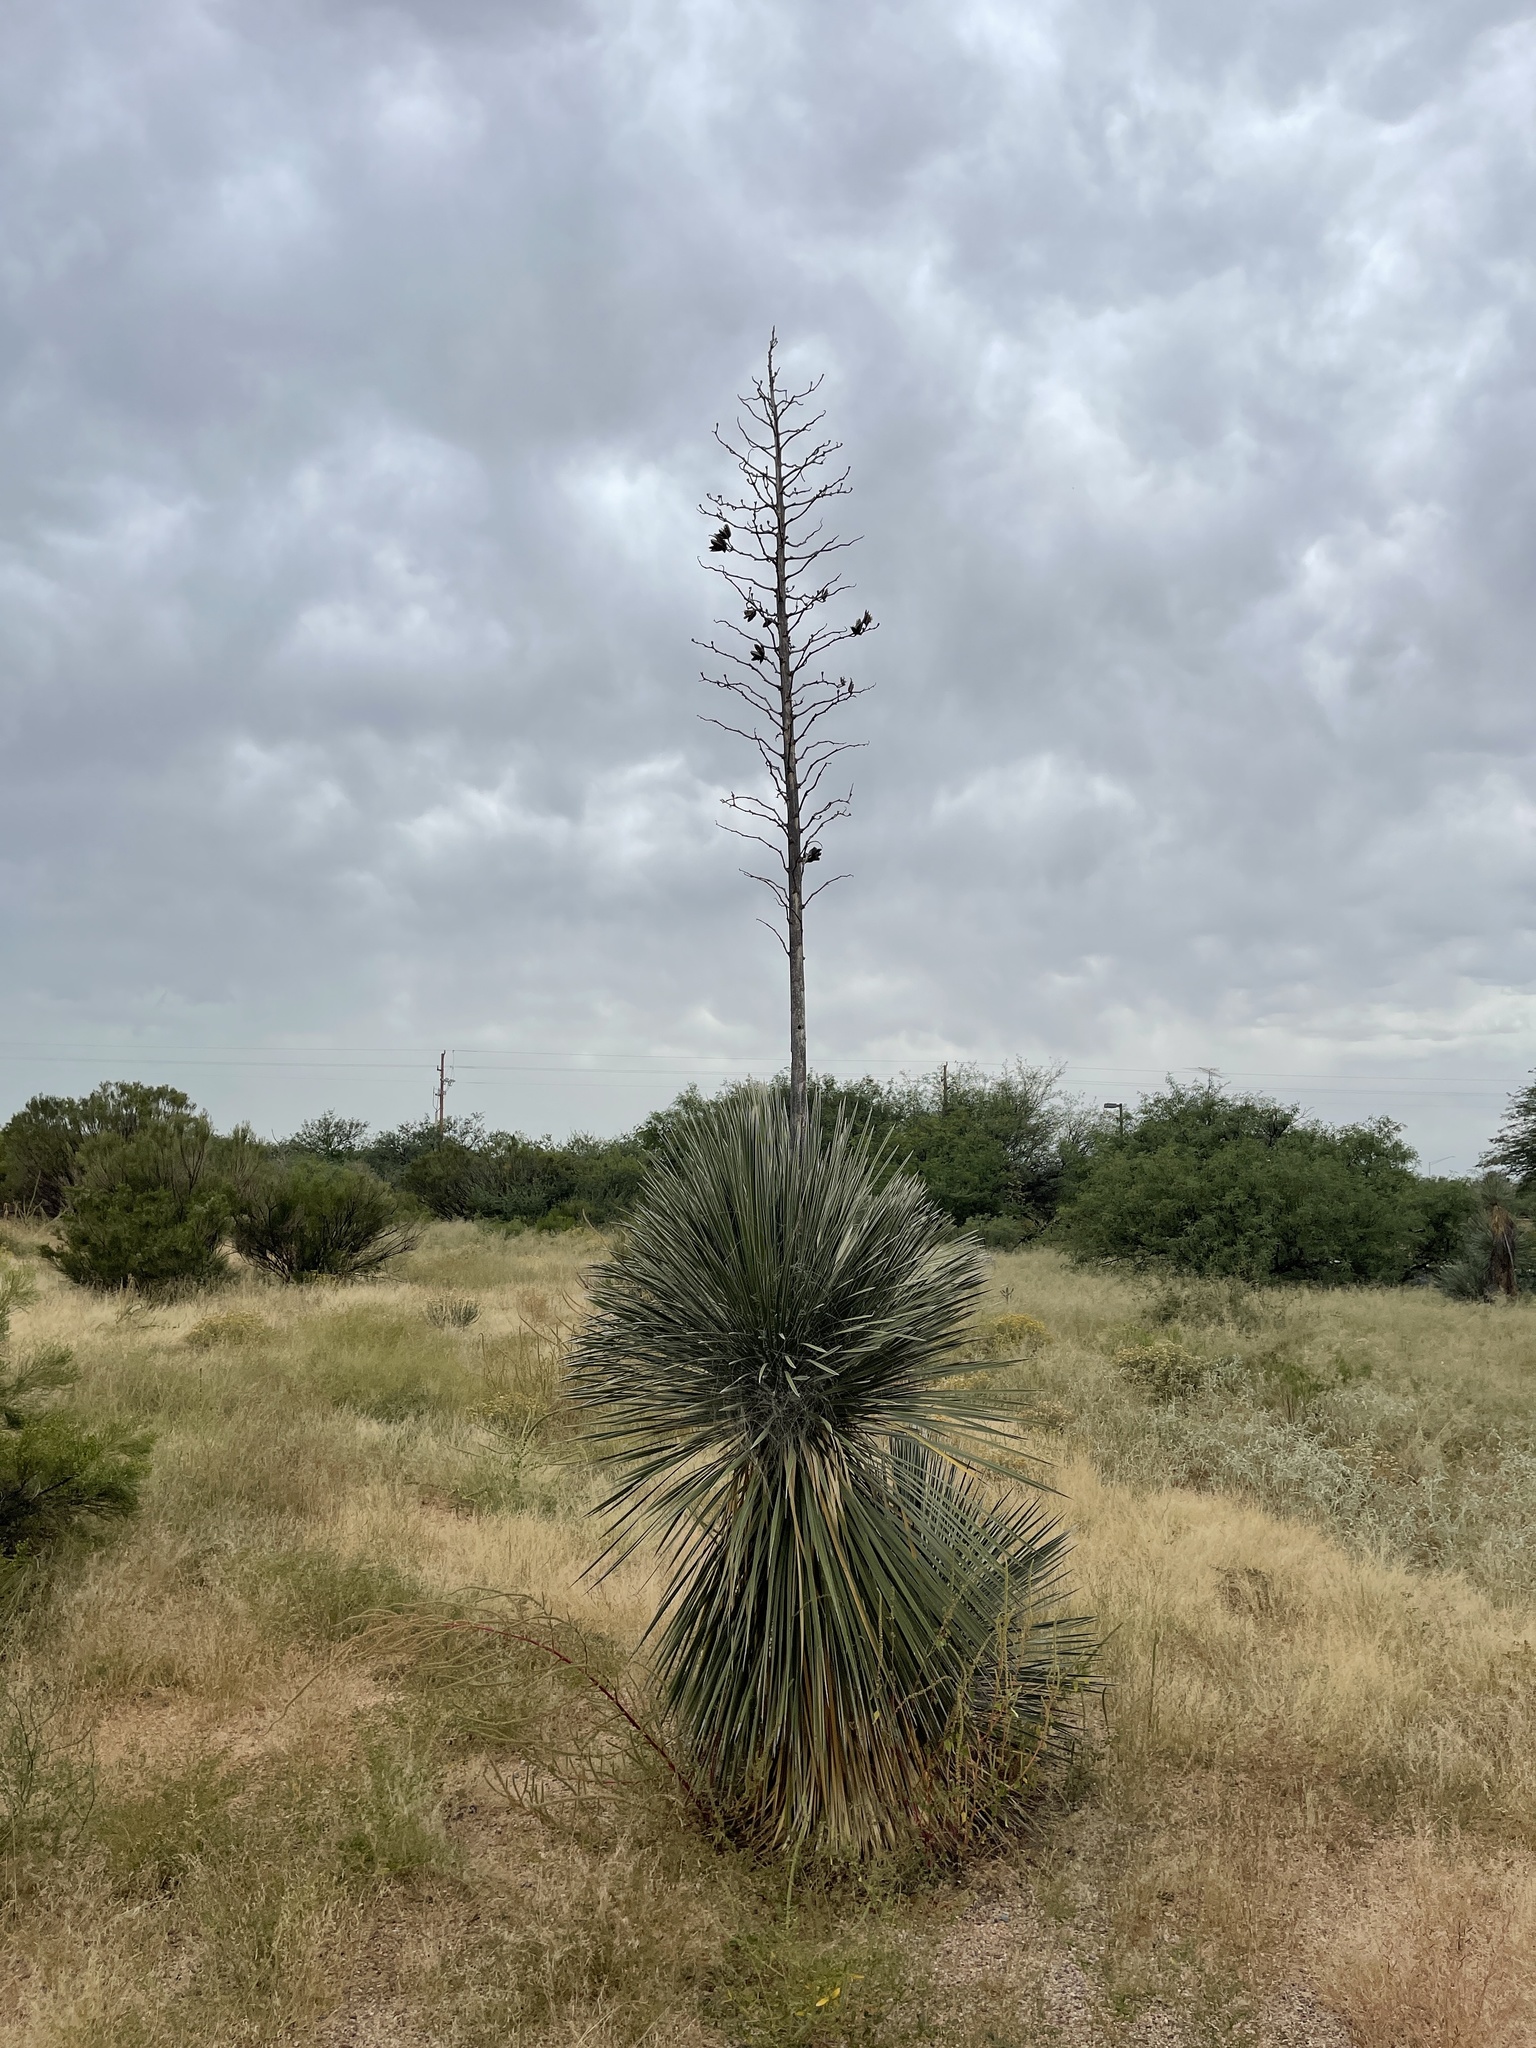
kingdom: Plantae
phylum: Tracheophyta
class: Liliopsida
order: Asparagales
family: Asparagaceae
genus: Yucca
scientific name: Yucca elata
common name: Palmella
